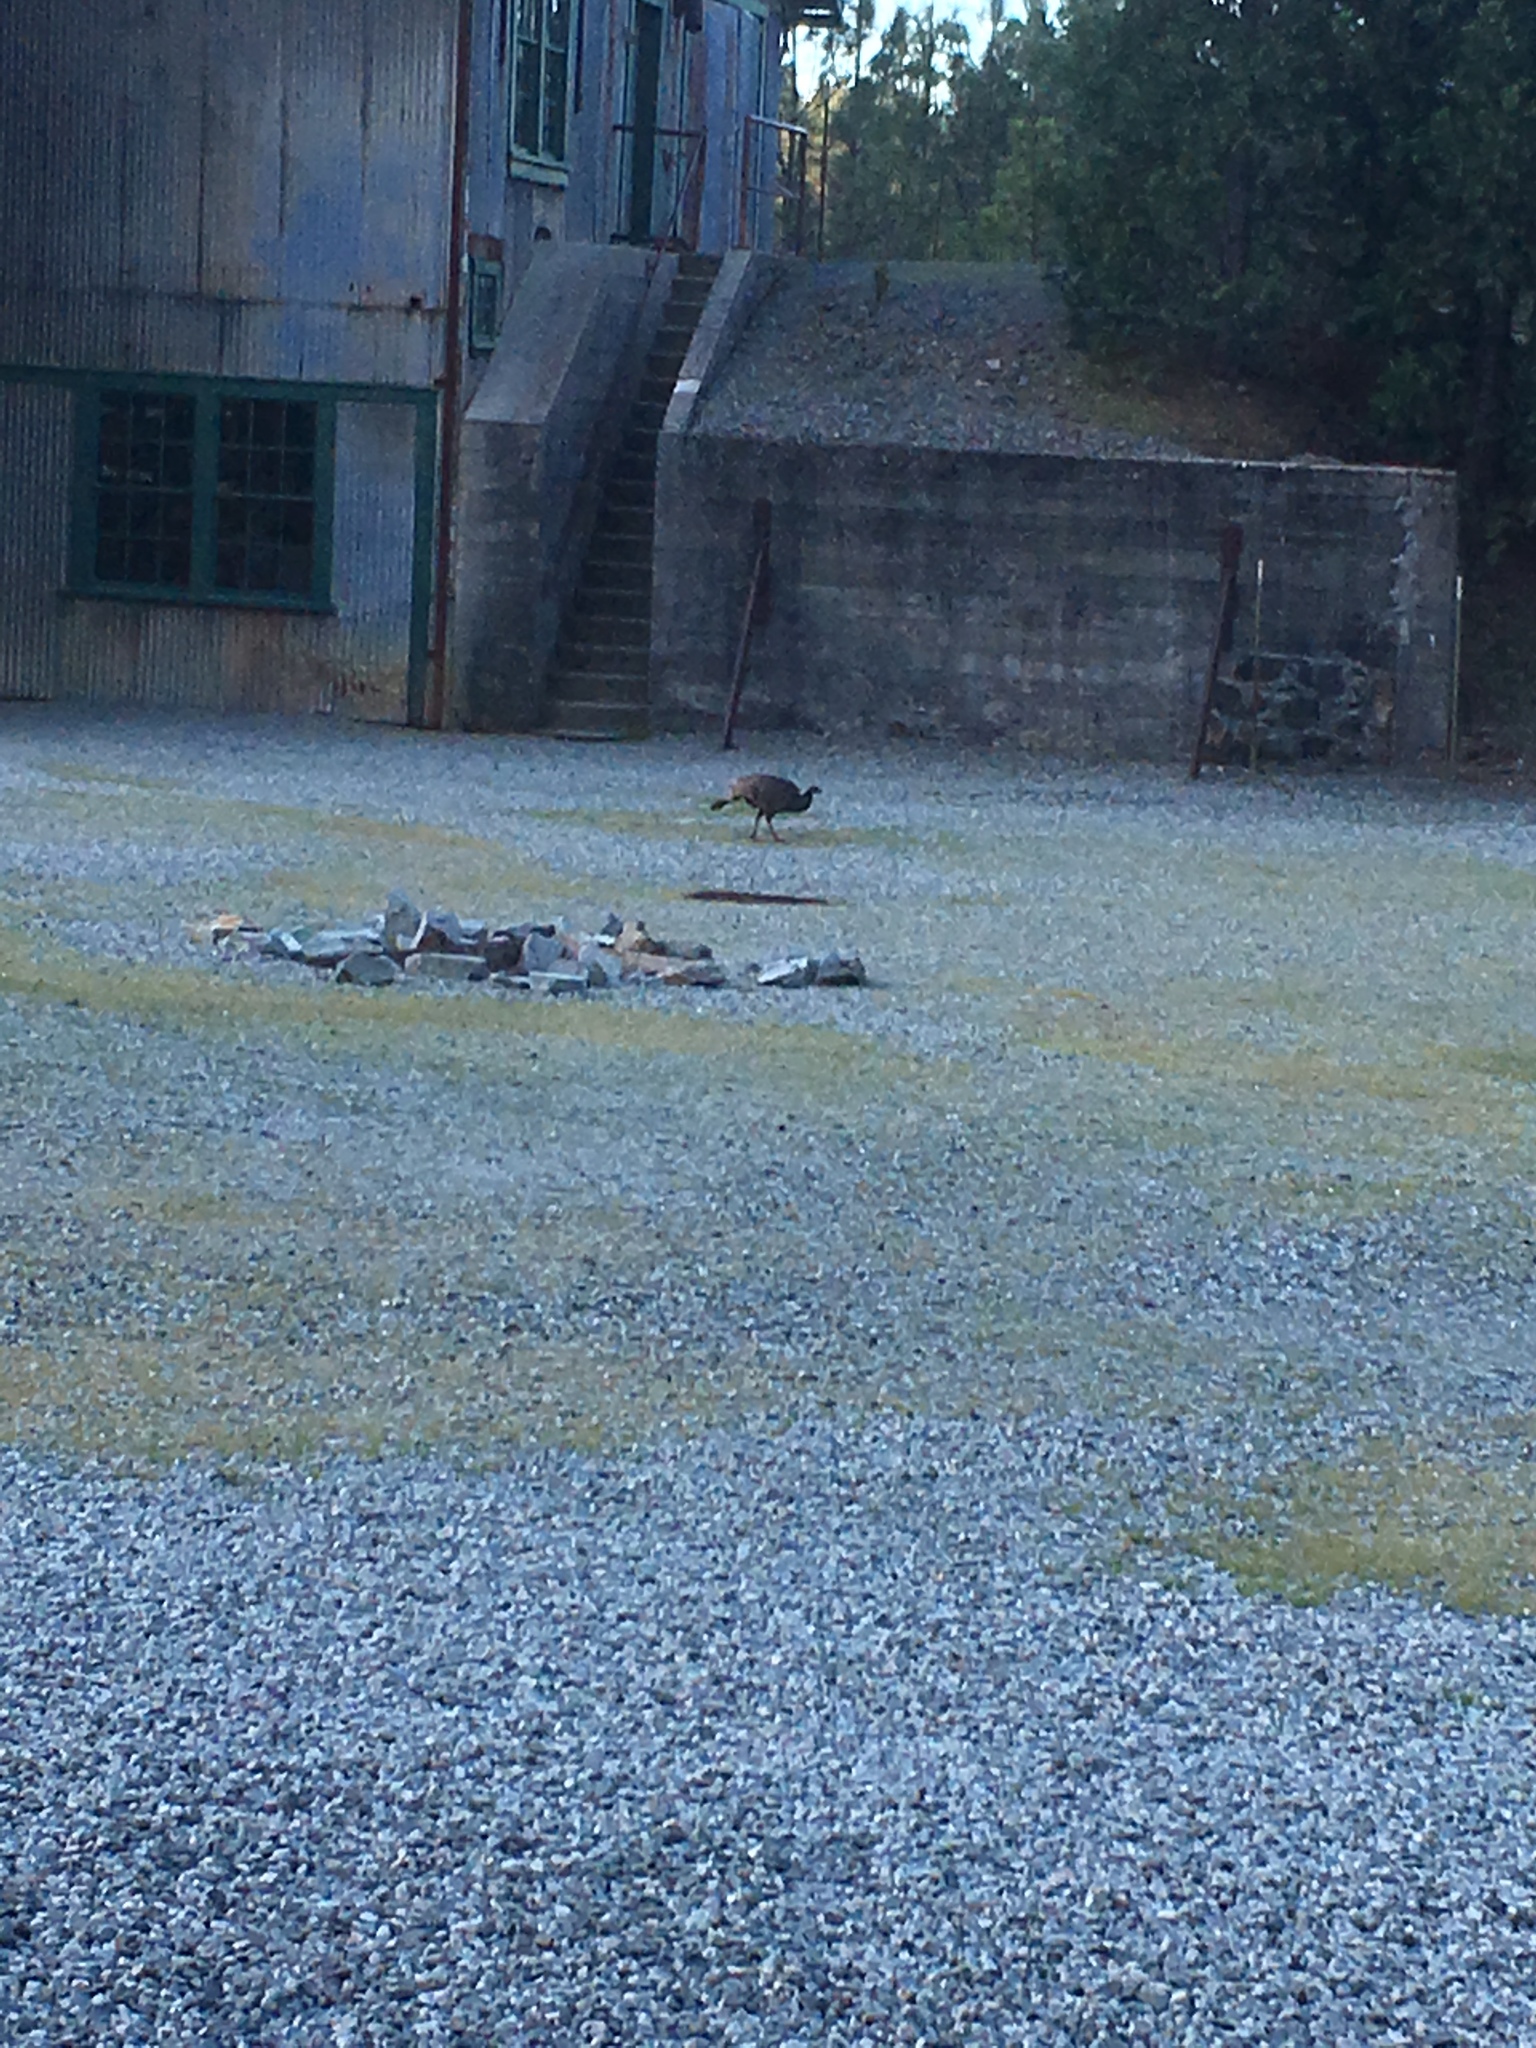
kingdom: Animalia
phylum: Chordata
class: Aves
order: Galliformes
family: Phasianidae
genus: Meleagris
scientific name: Meleagris gallopavo
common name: Wild turkey
